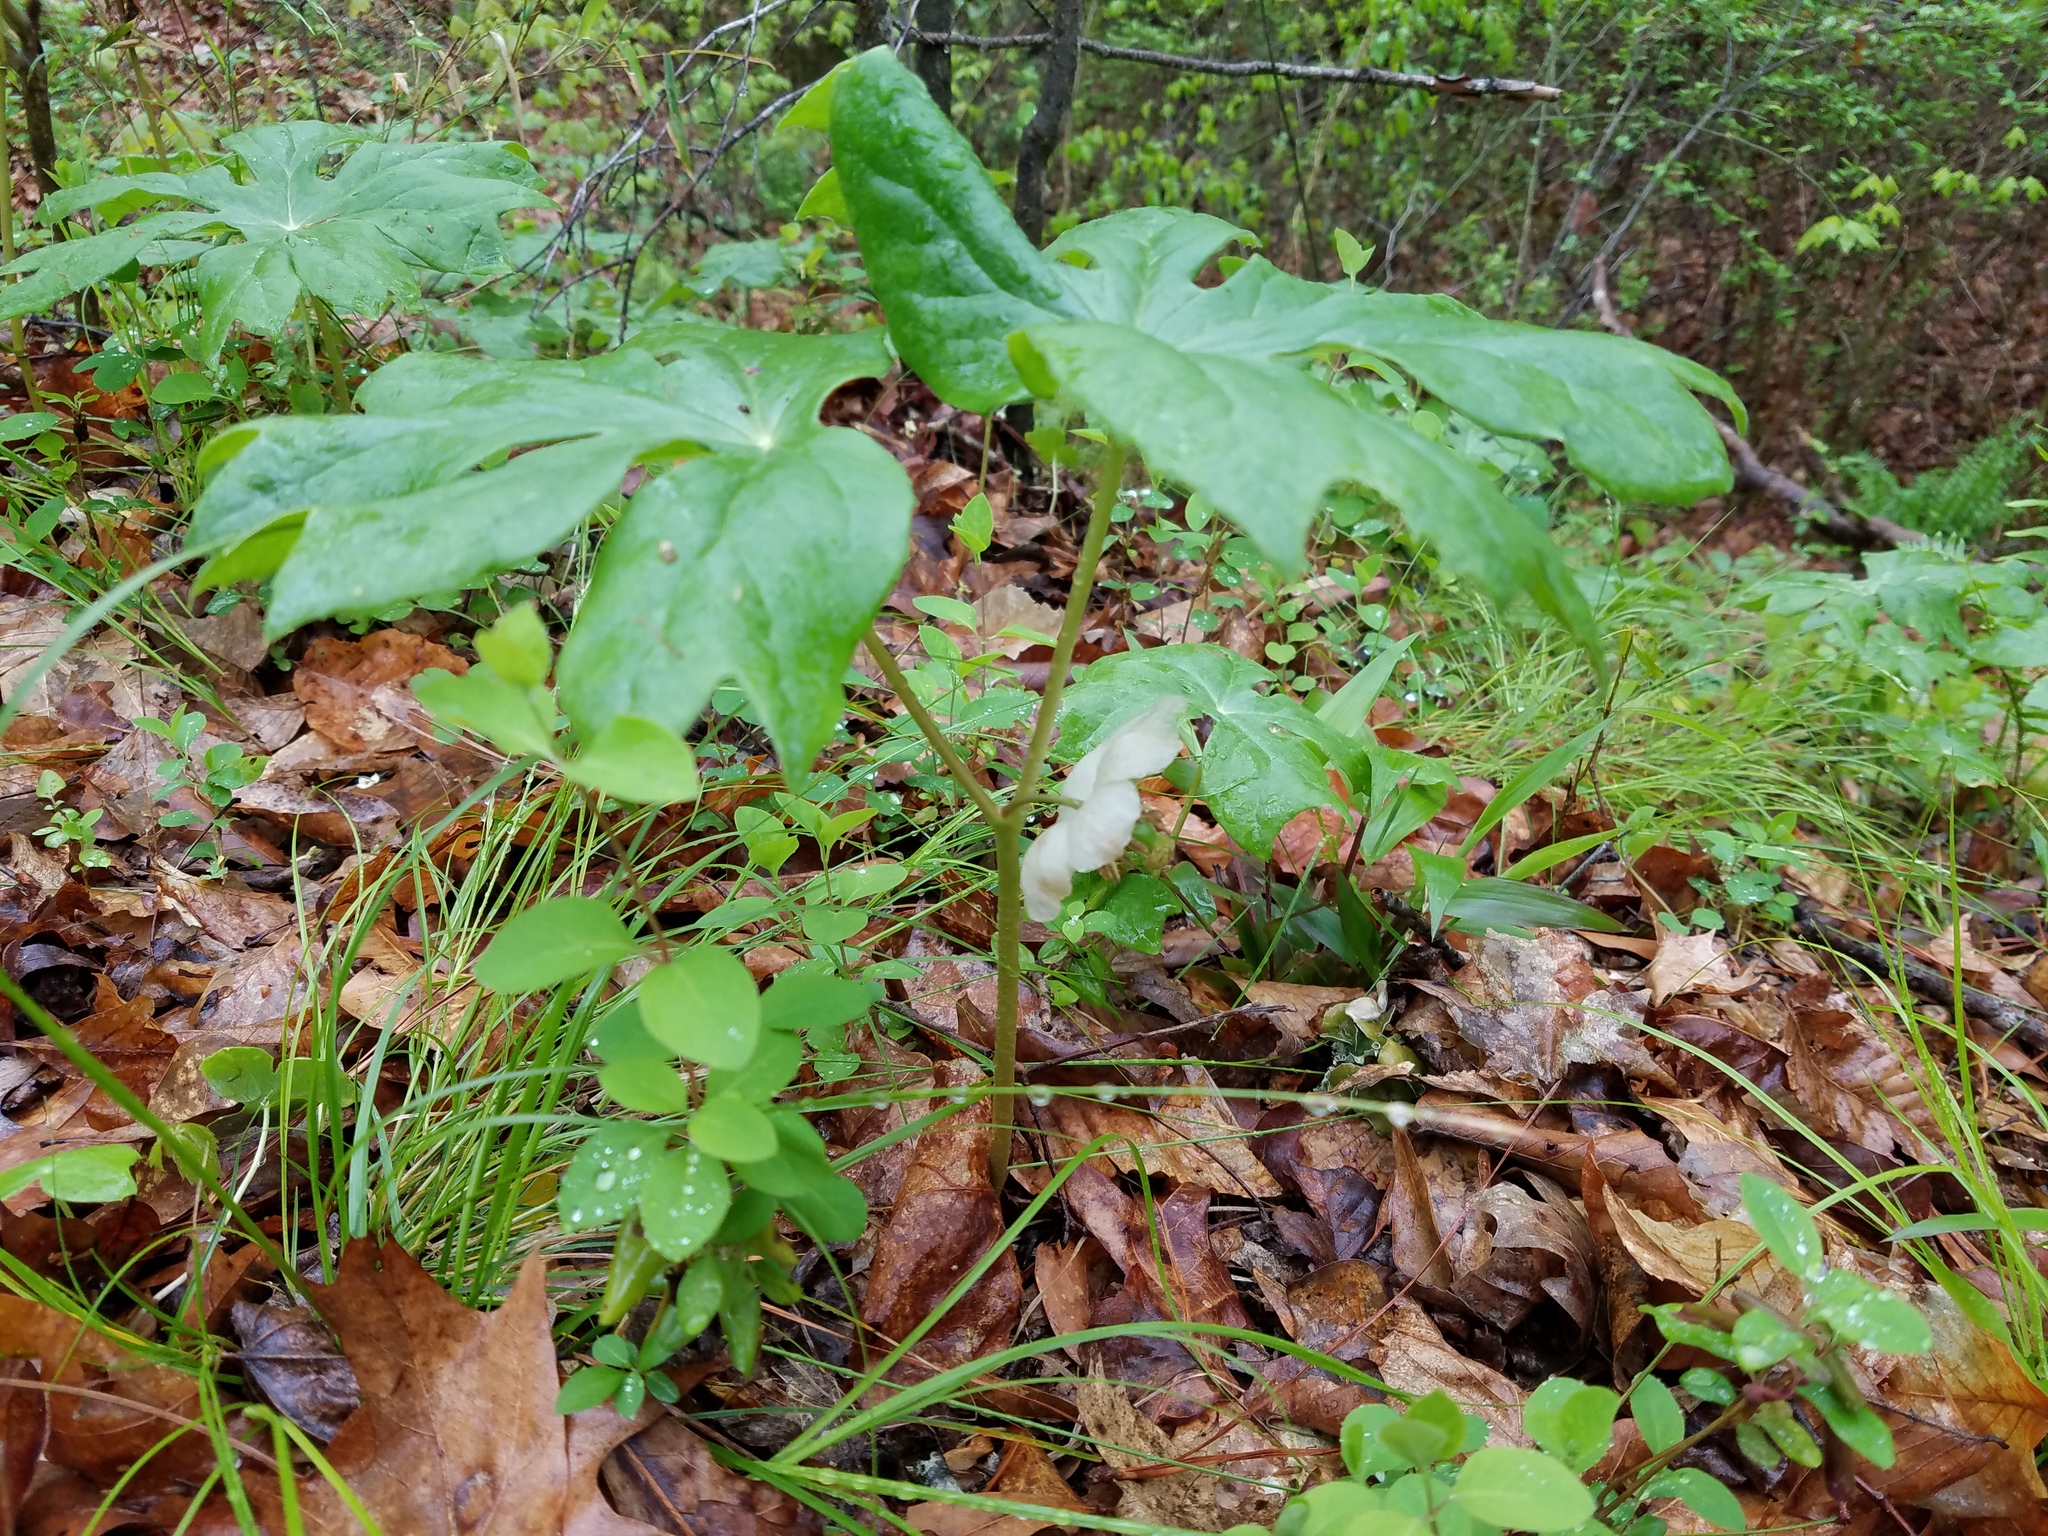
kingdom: Plantae
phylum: Tracheophyta
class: Magnoliopsida
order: Ranunculales
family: Berberidaceae
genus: Podophyllum
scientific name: Podophyllum peltatum
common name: Wild mandrake
